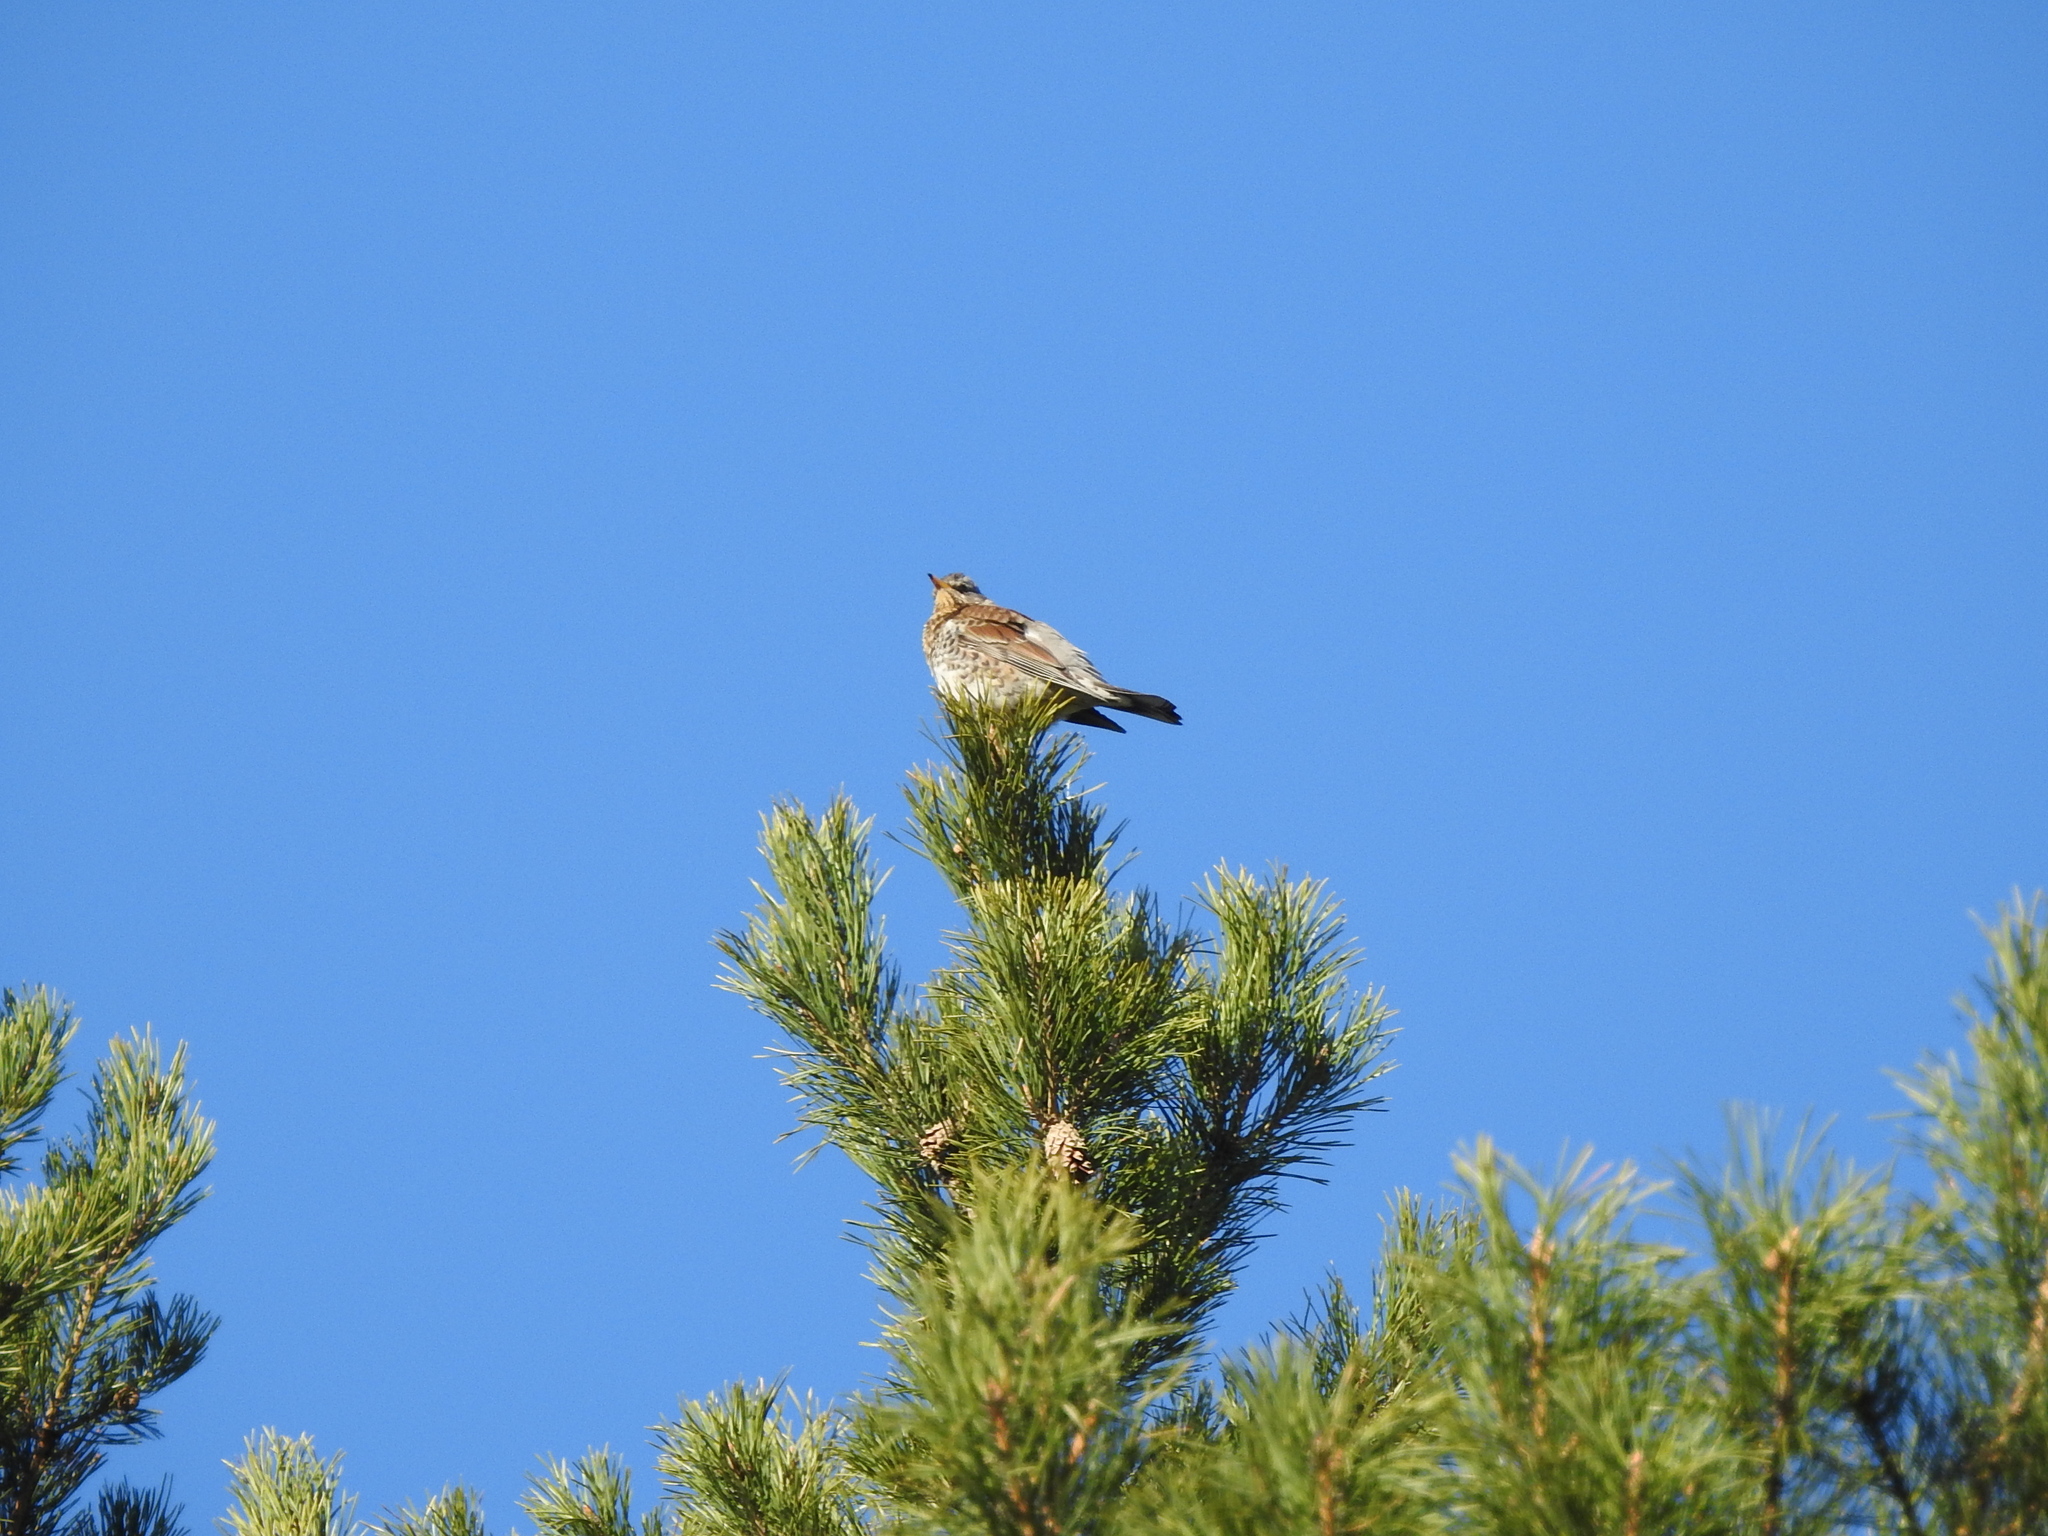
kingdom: Animalia
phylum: Chordata
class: Aves
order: Passeriformes
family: Turdidae
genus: Turdus
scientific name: Turdus pilaris
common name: Fieldfare
